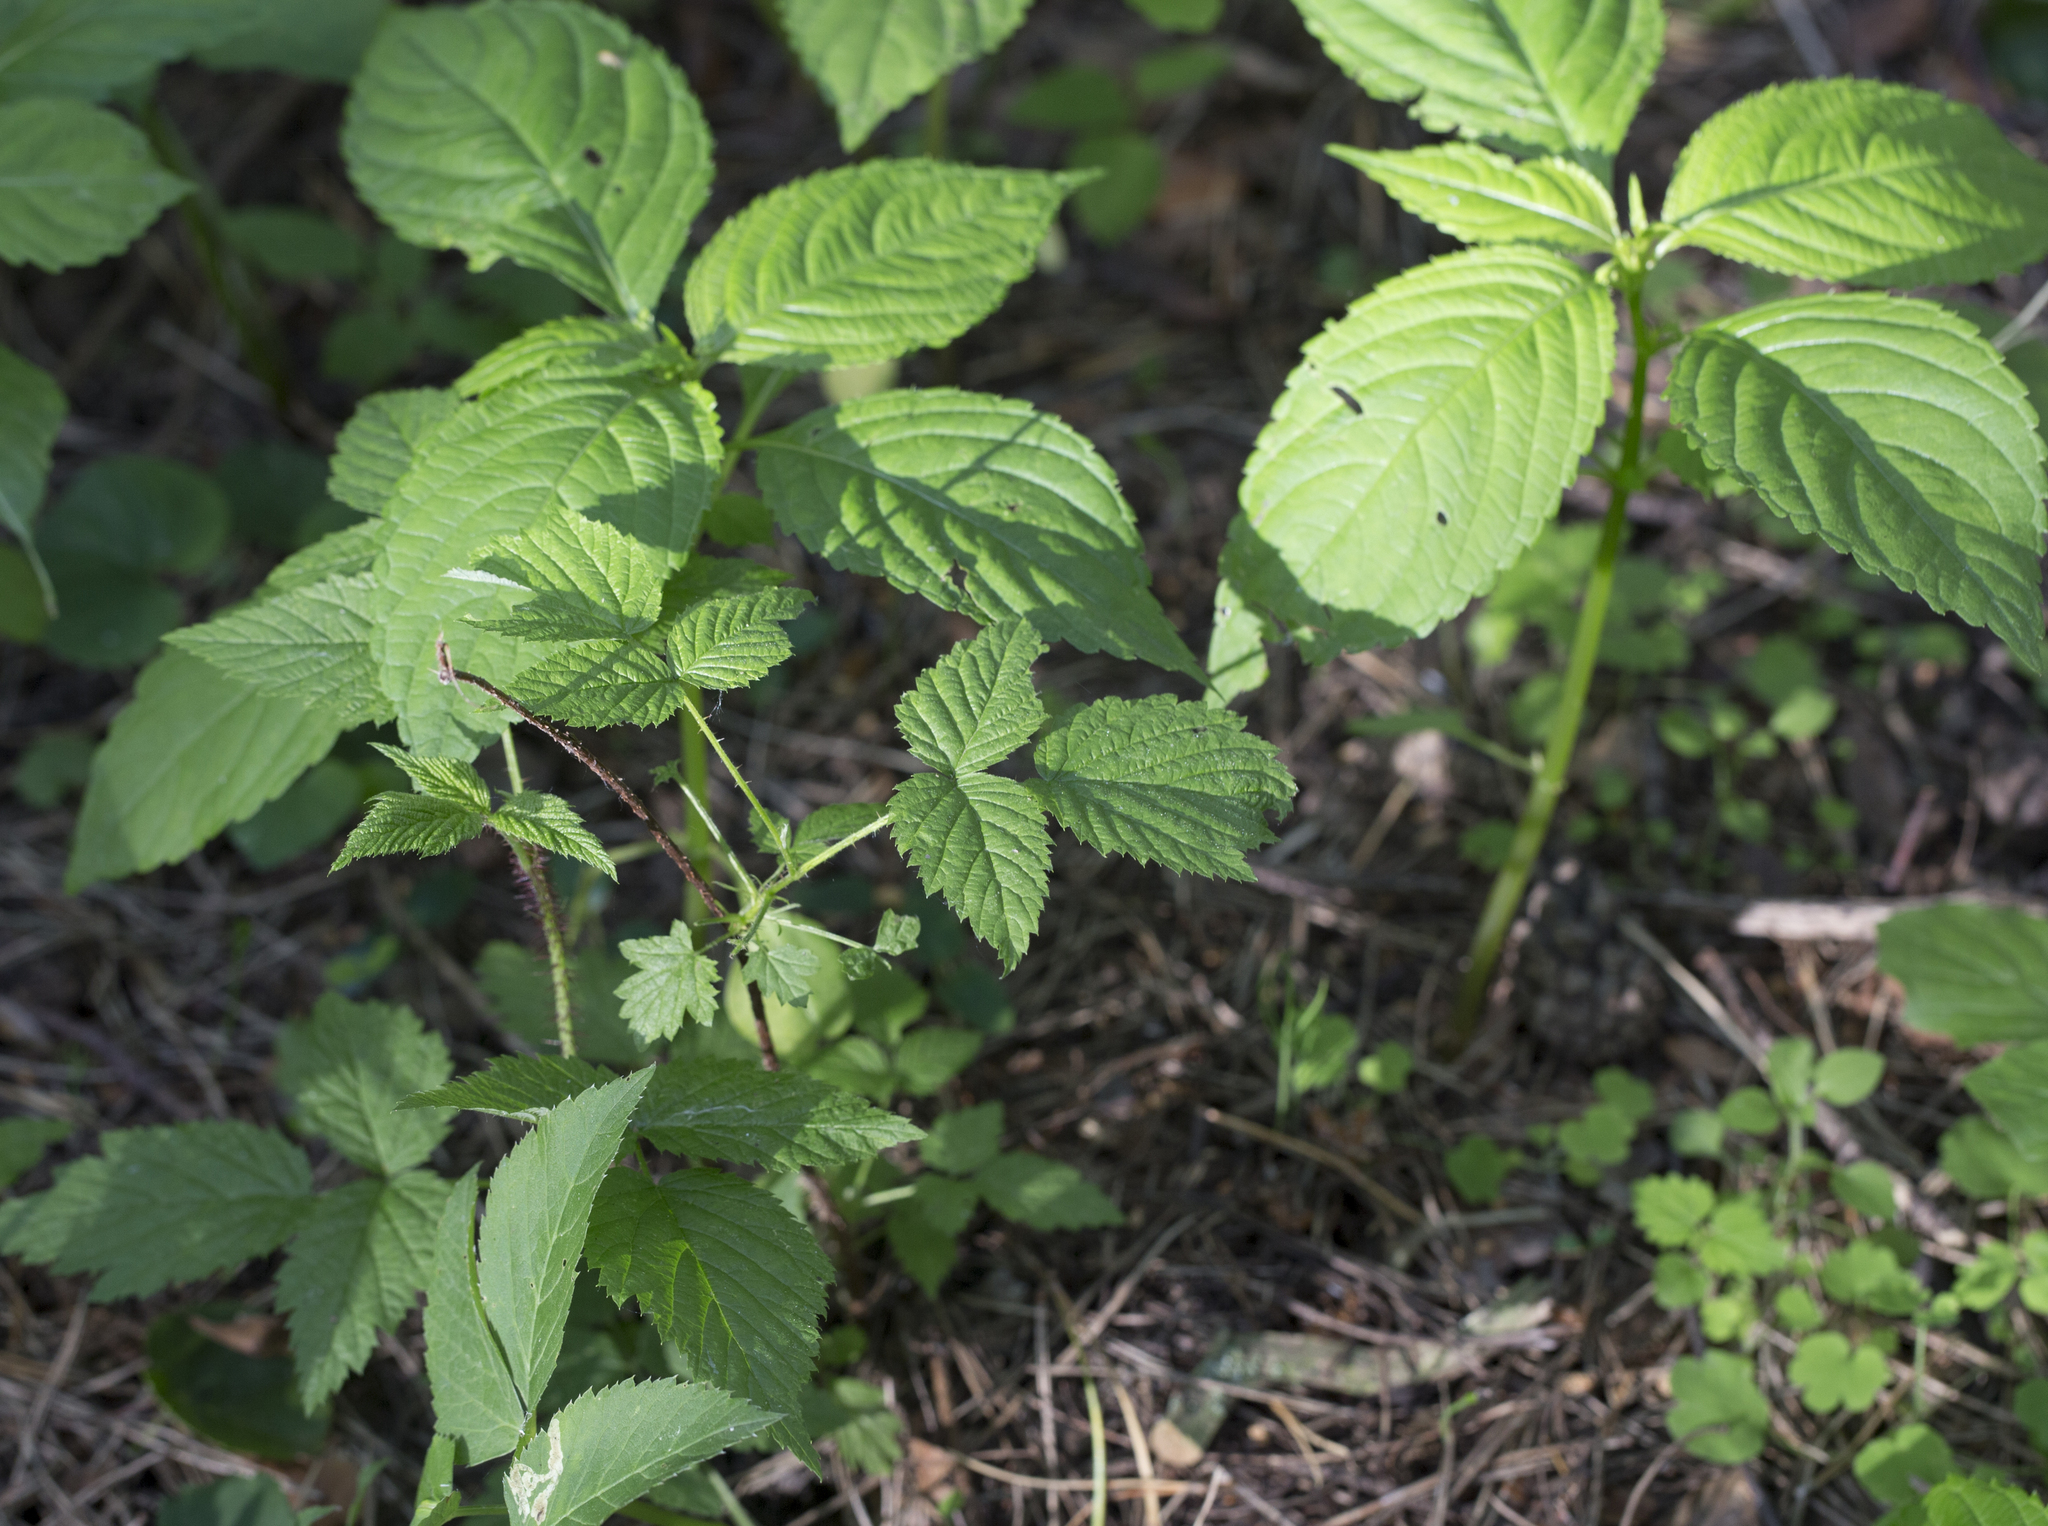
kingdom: Plantae
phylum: Tracheophyta
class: Magnoliopsida
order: Rosales
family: Rosaceae
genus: Rubus
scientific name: Rubus idaeus
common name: Raspberry
